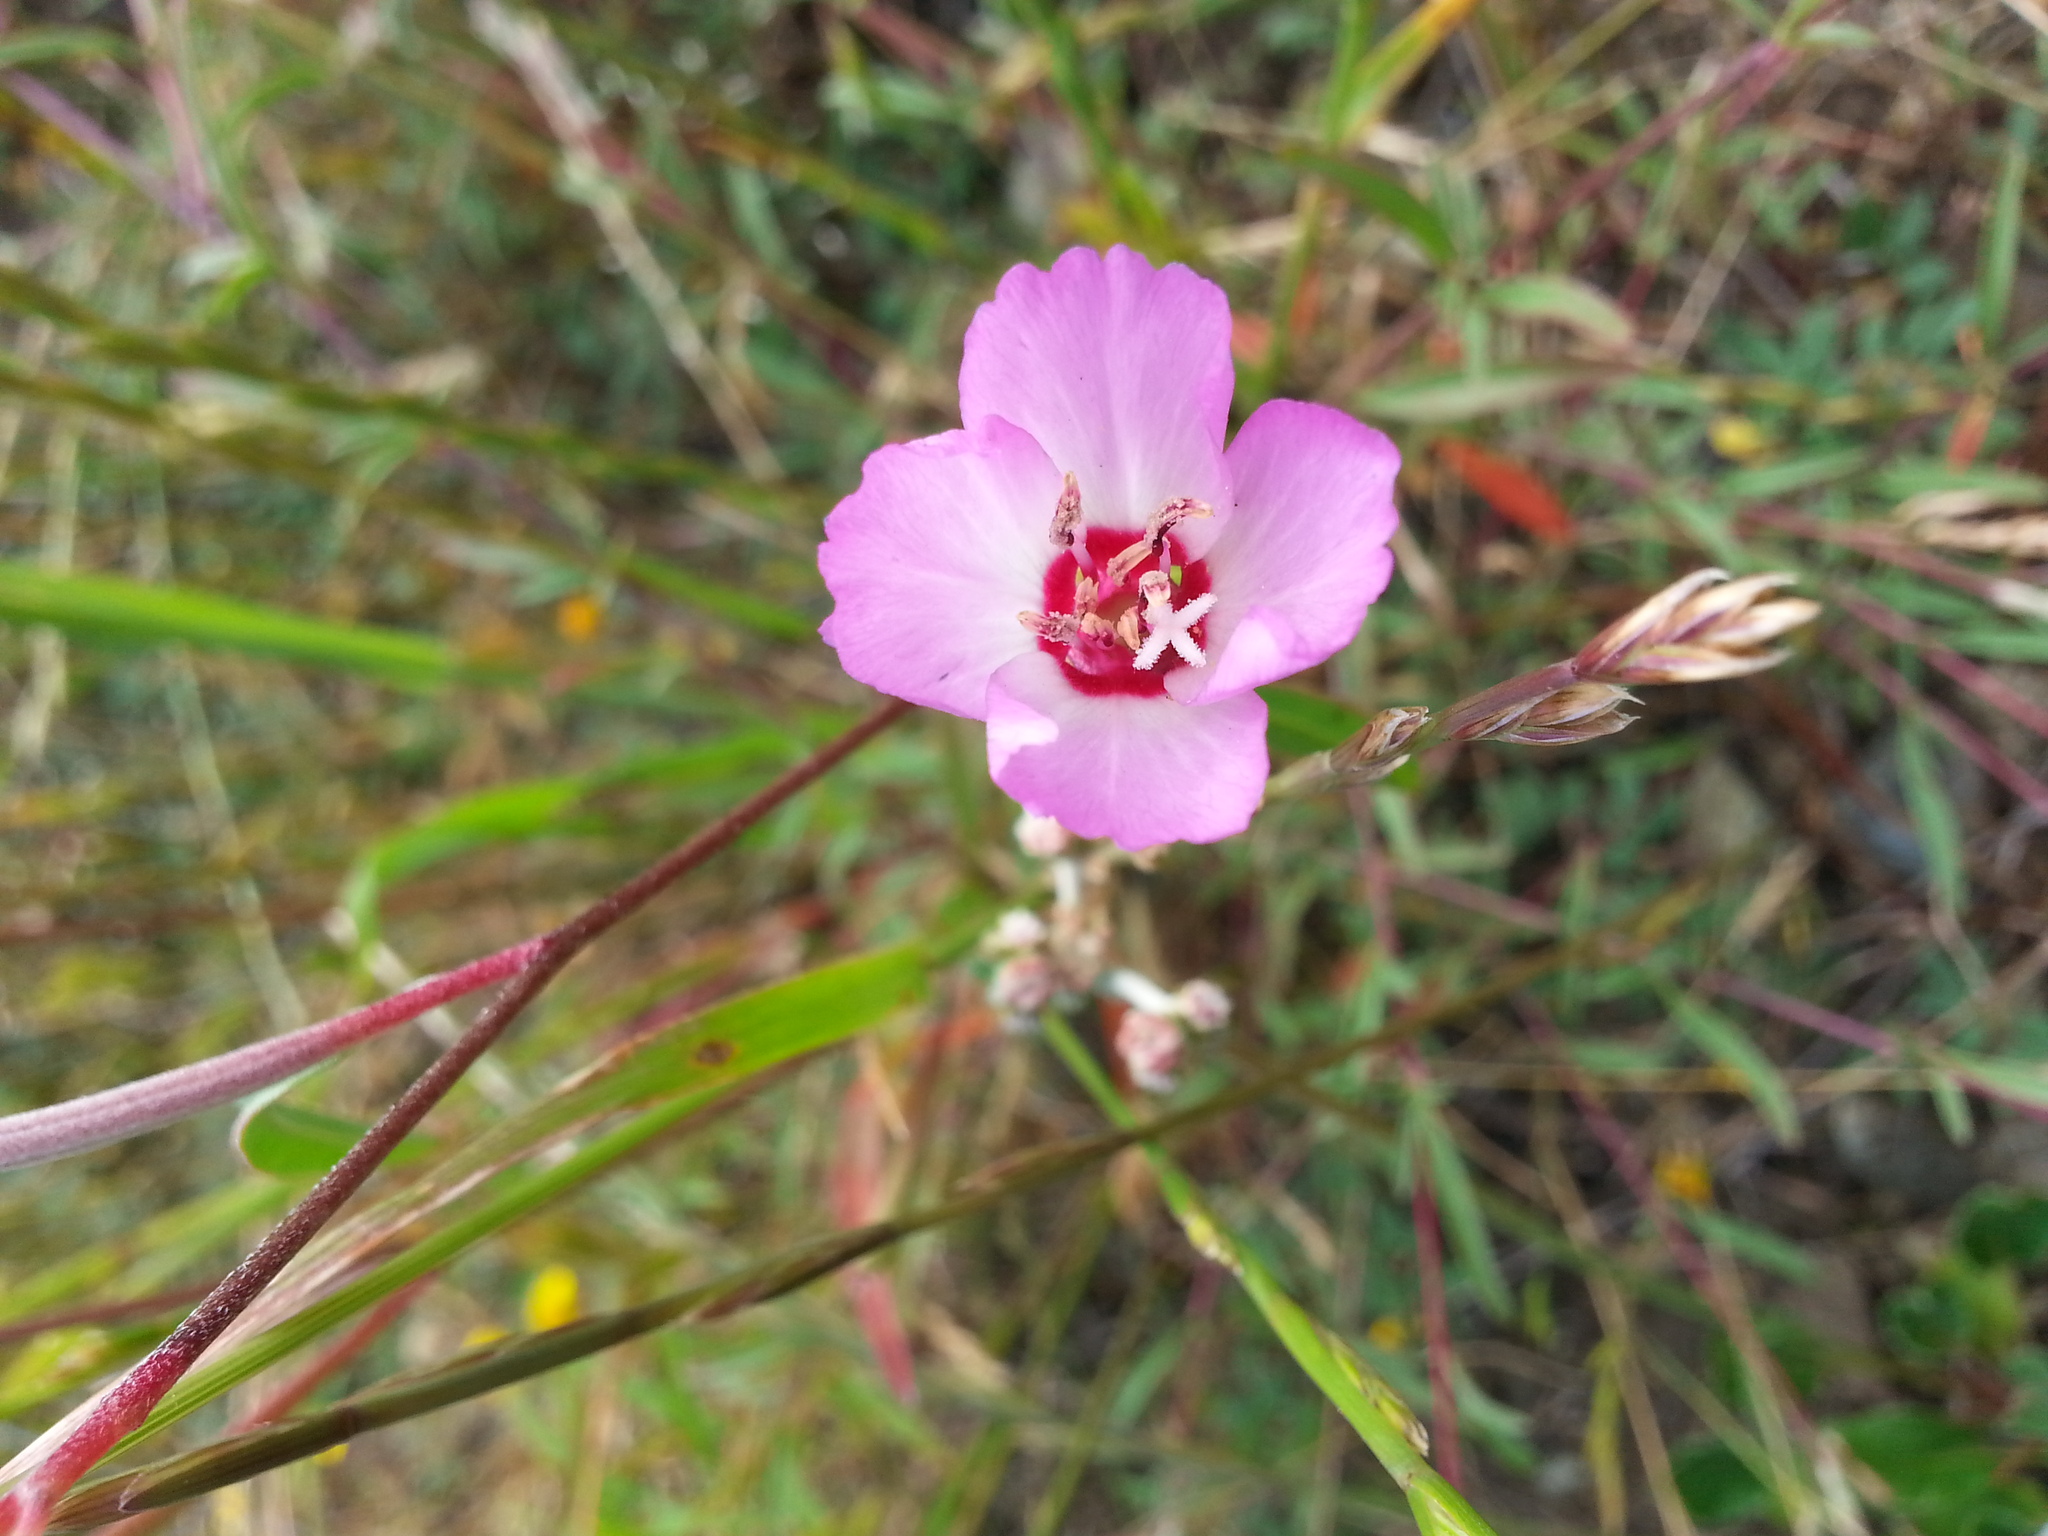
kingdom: Plantae
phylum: Tracheophyta
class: Magnoliopsida
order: Myrtales
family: Onagraceae
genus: Clarkia
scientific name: Clarkia franciscana
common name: Presidio clarkia
